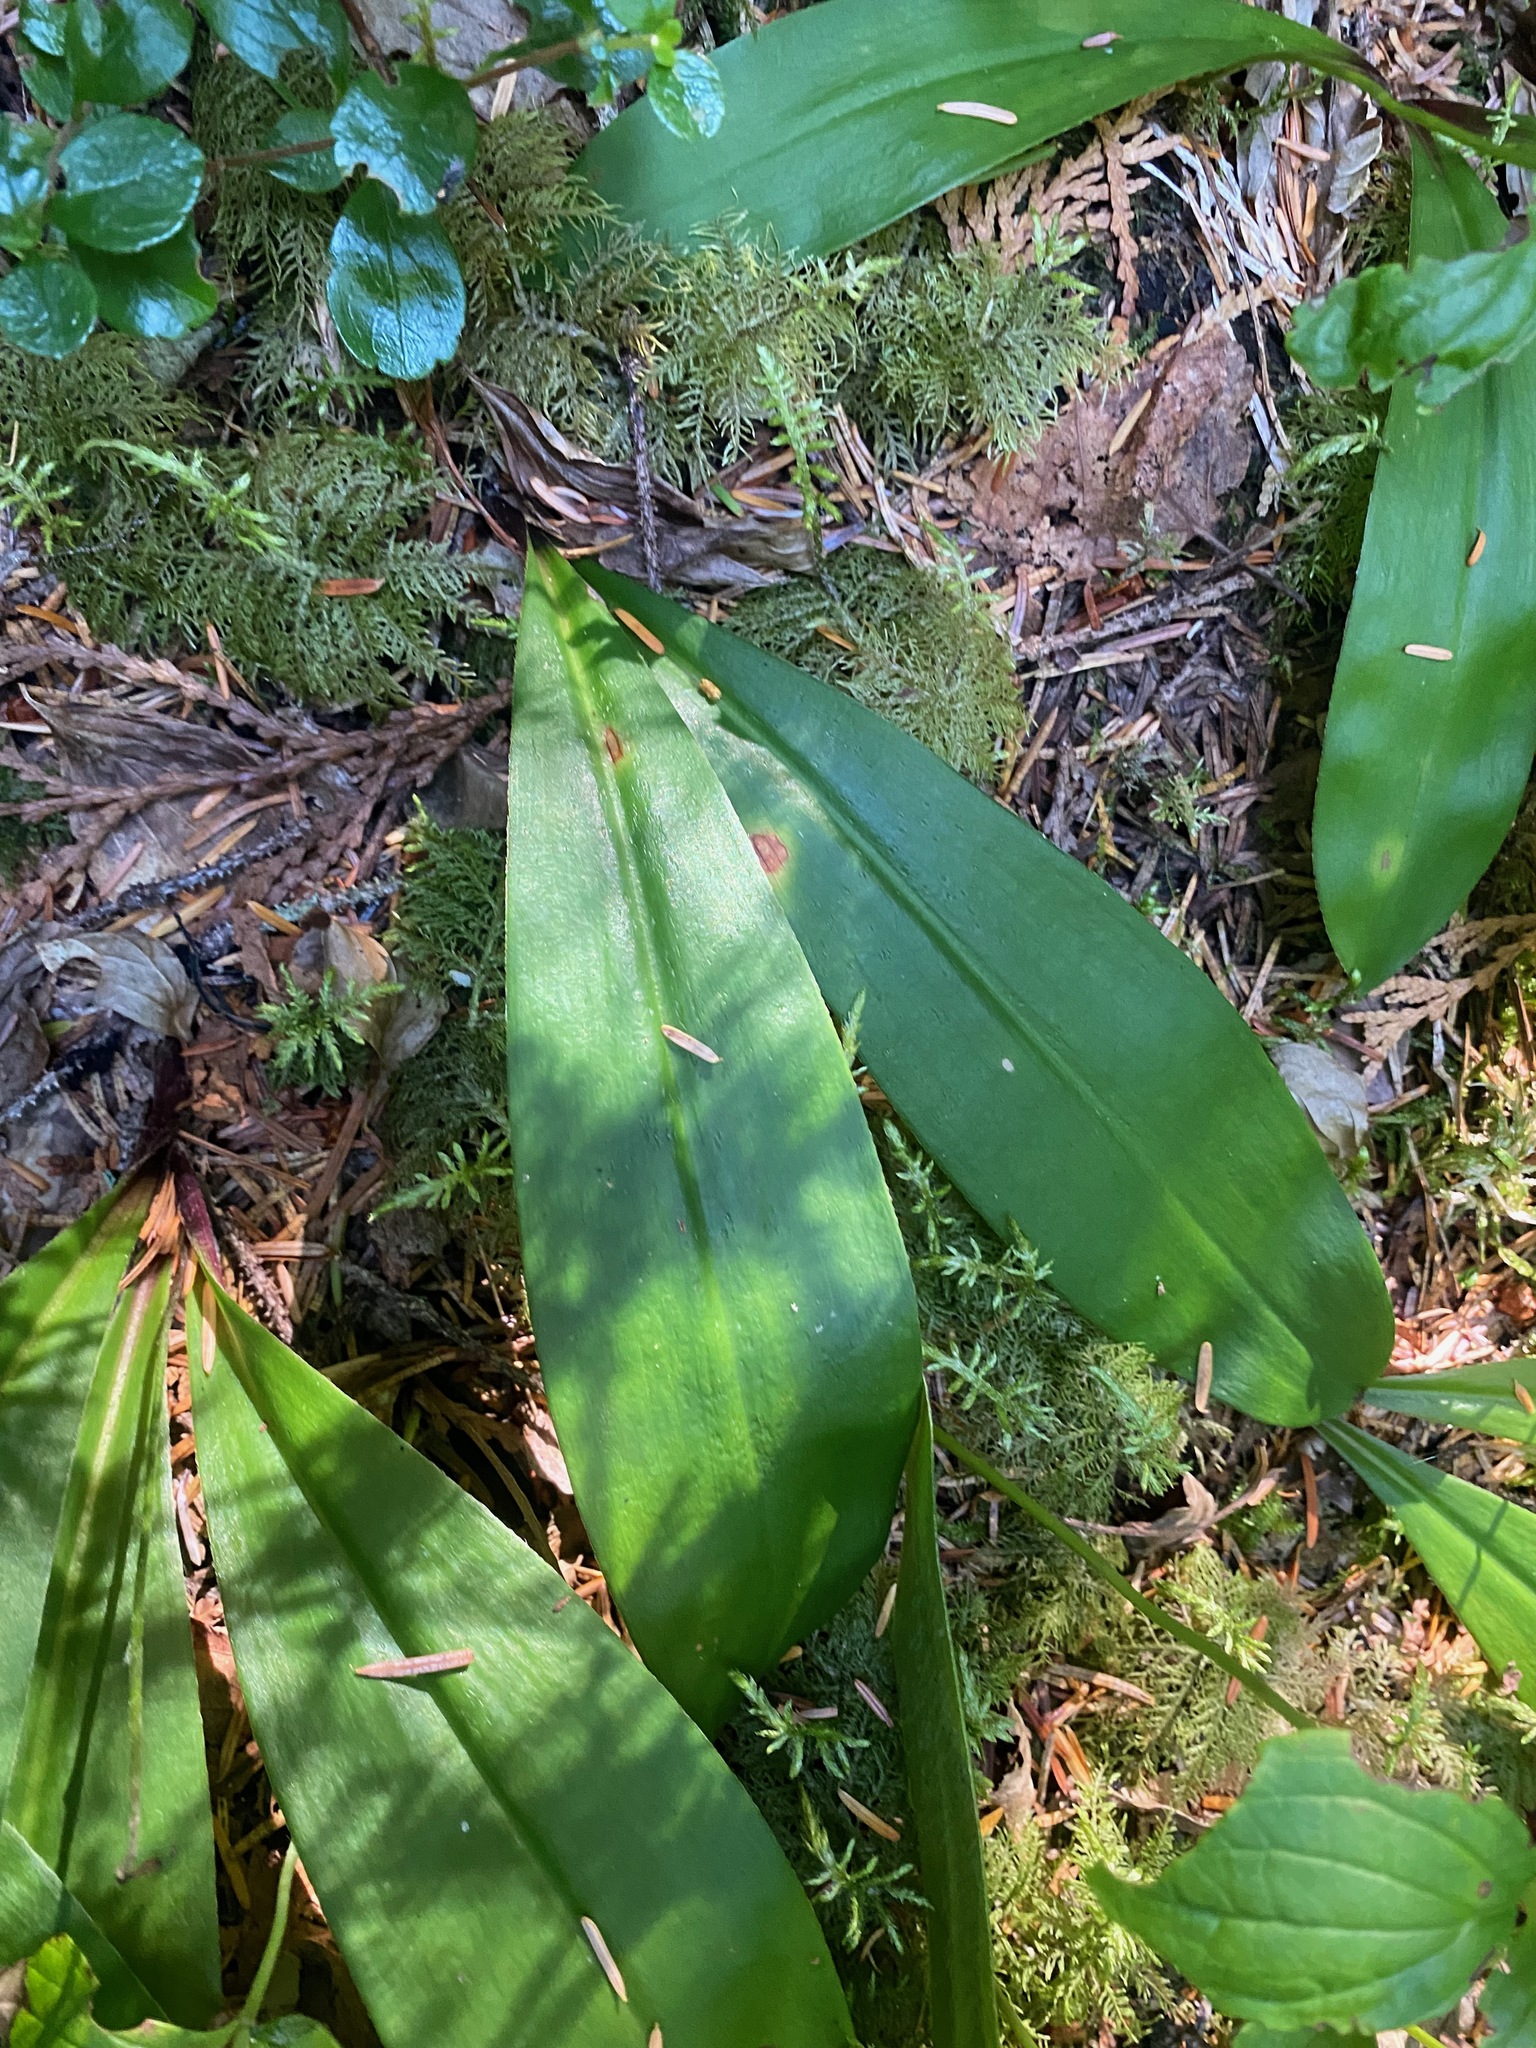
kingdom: Plantae
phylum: Tracheophyta
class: Liliopsida
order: Liliales
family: Liliaceae
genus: Clintonia
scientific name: Clintonia uniflora
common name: Queen's cup
